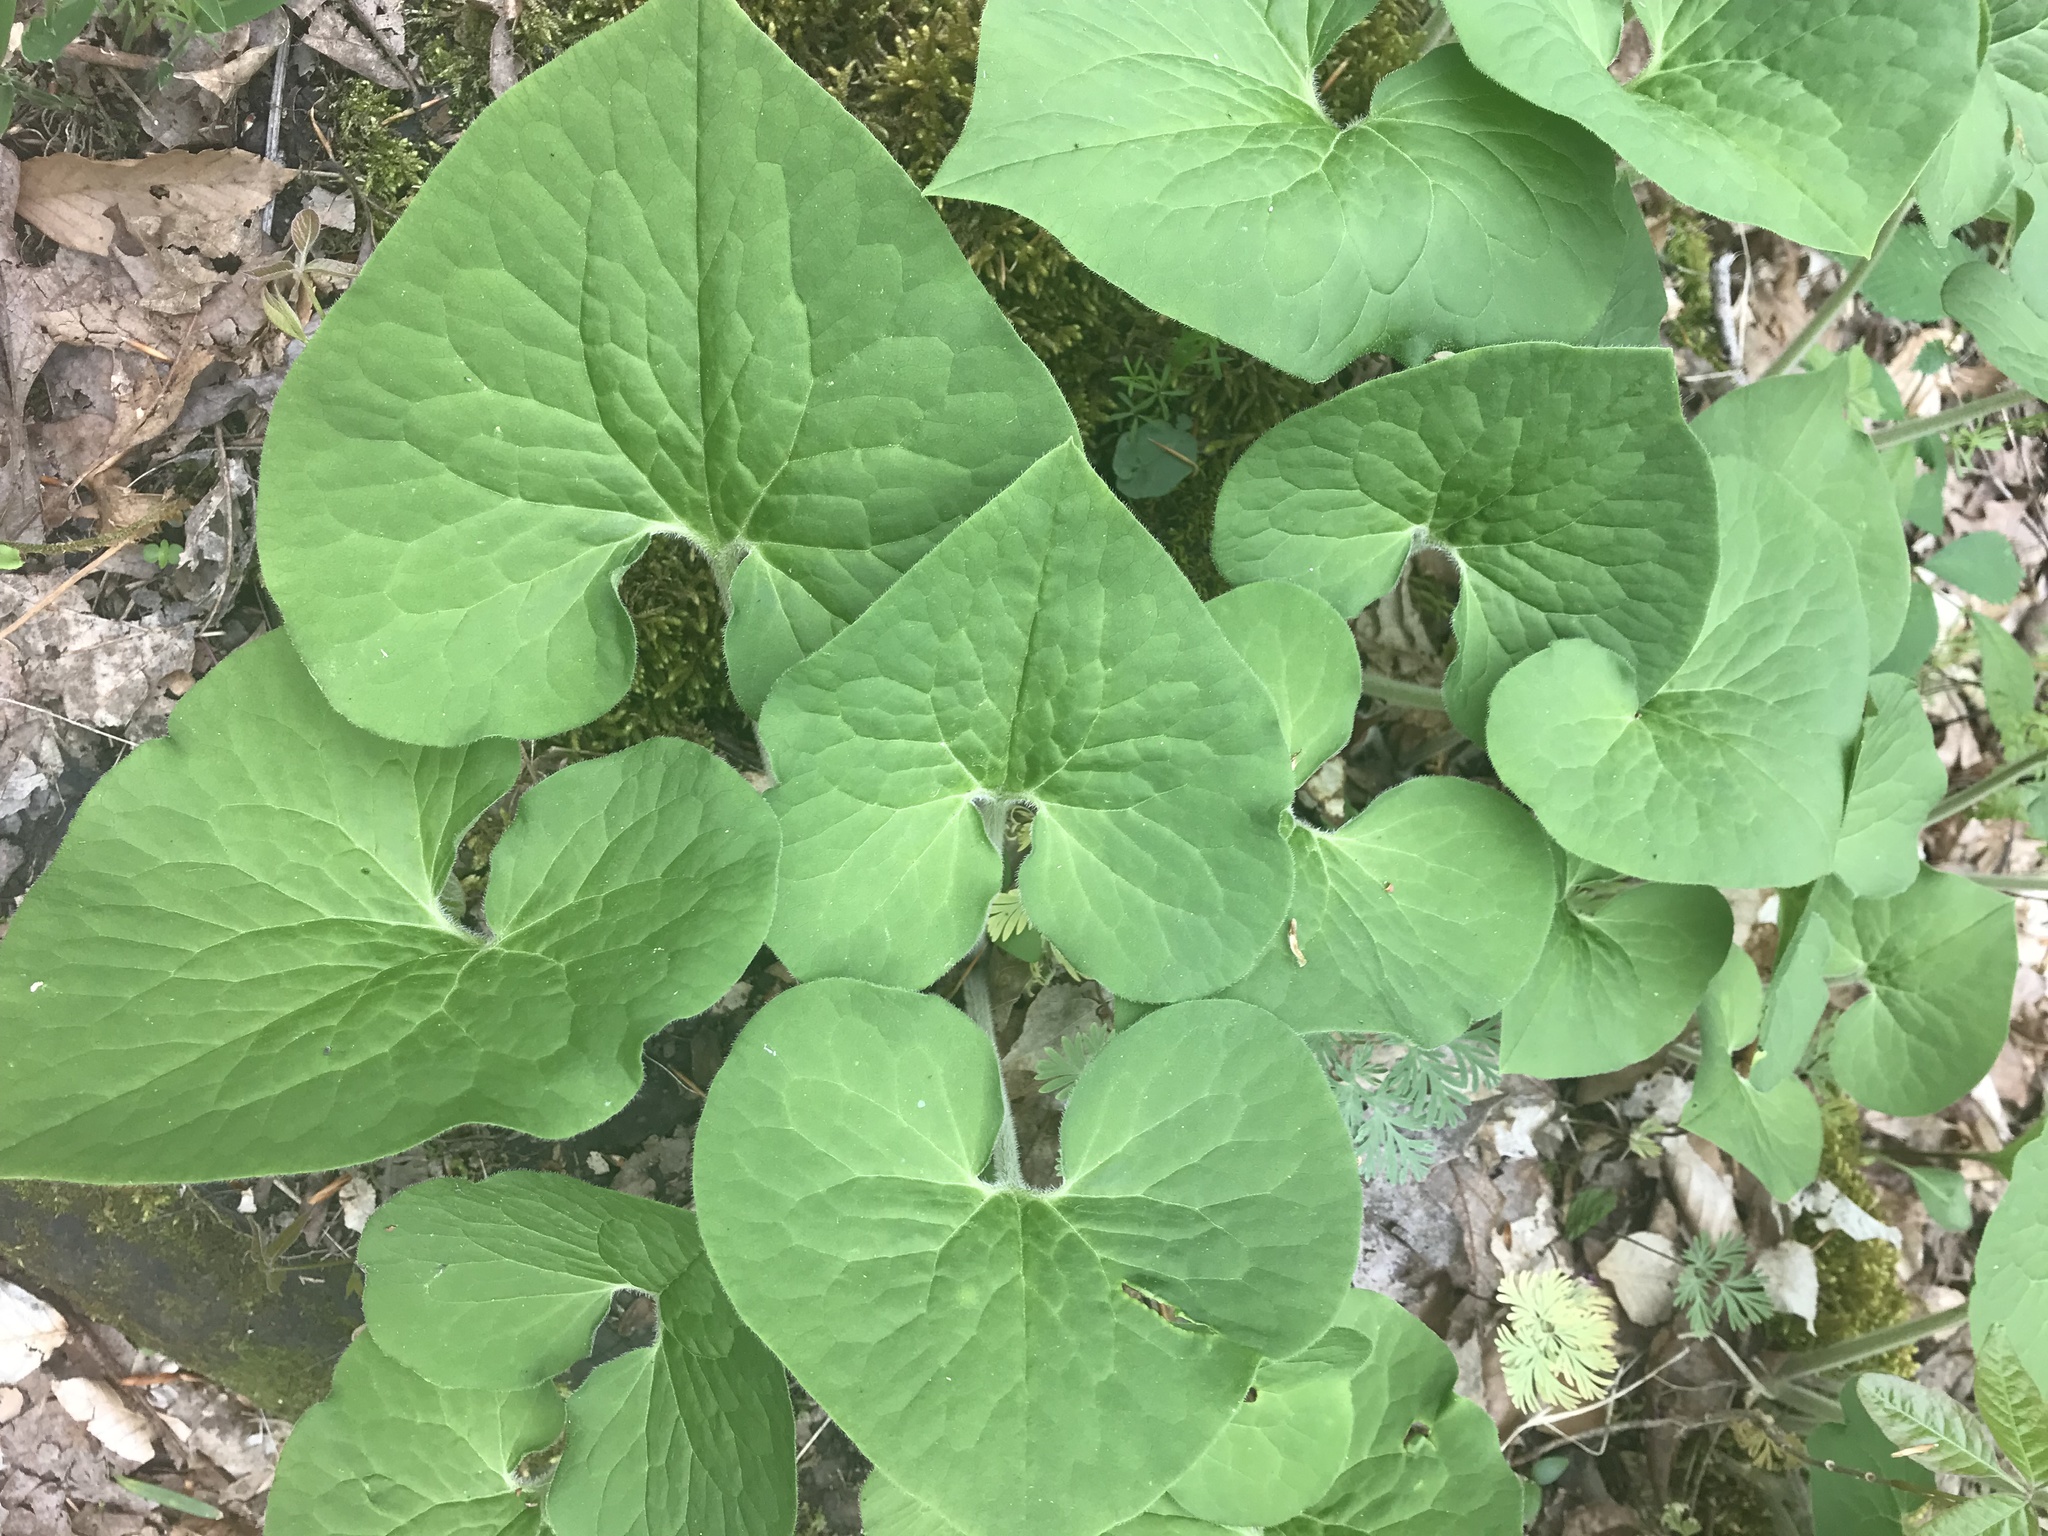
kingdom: Plantae
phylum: Tracheophyta
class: Magnoliopsida
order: Piperales
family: Aristolochiaceae
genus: Asarum
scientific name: Asarum canadense
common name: Wild ginger
